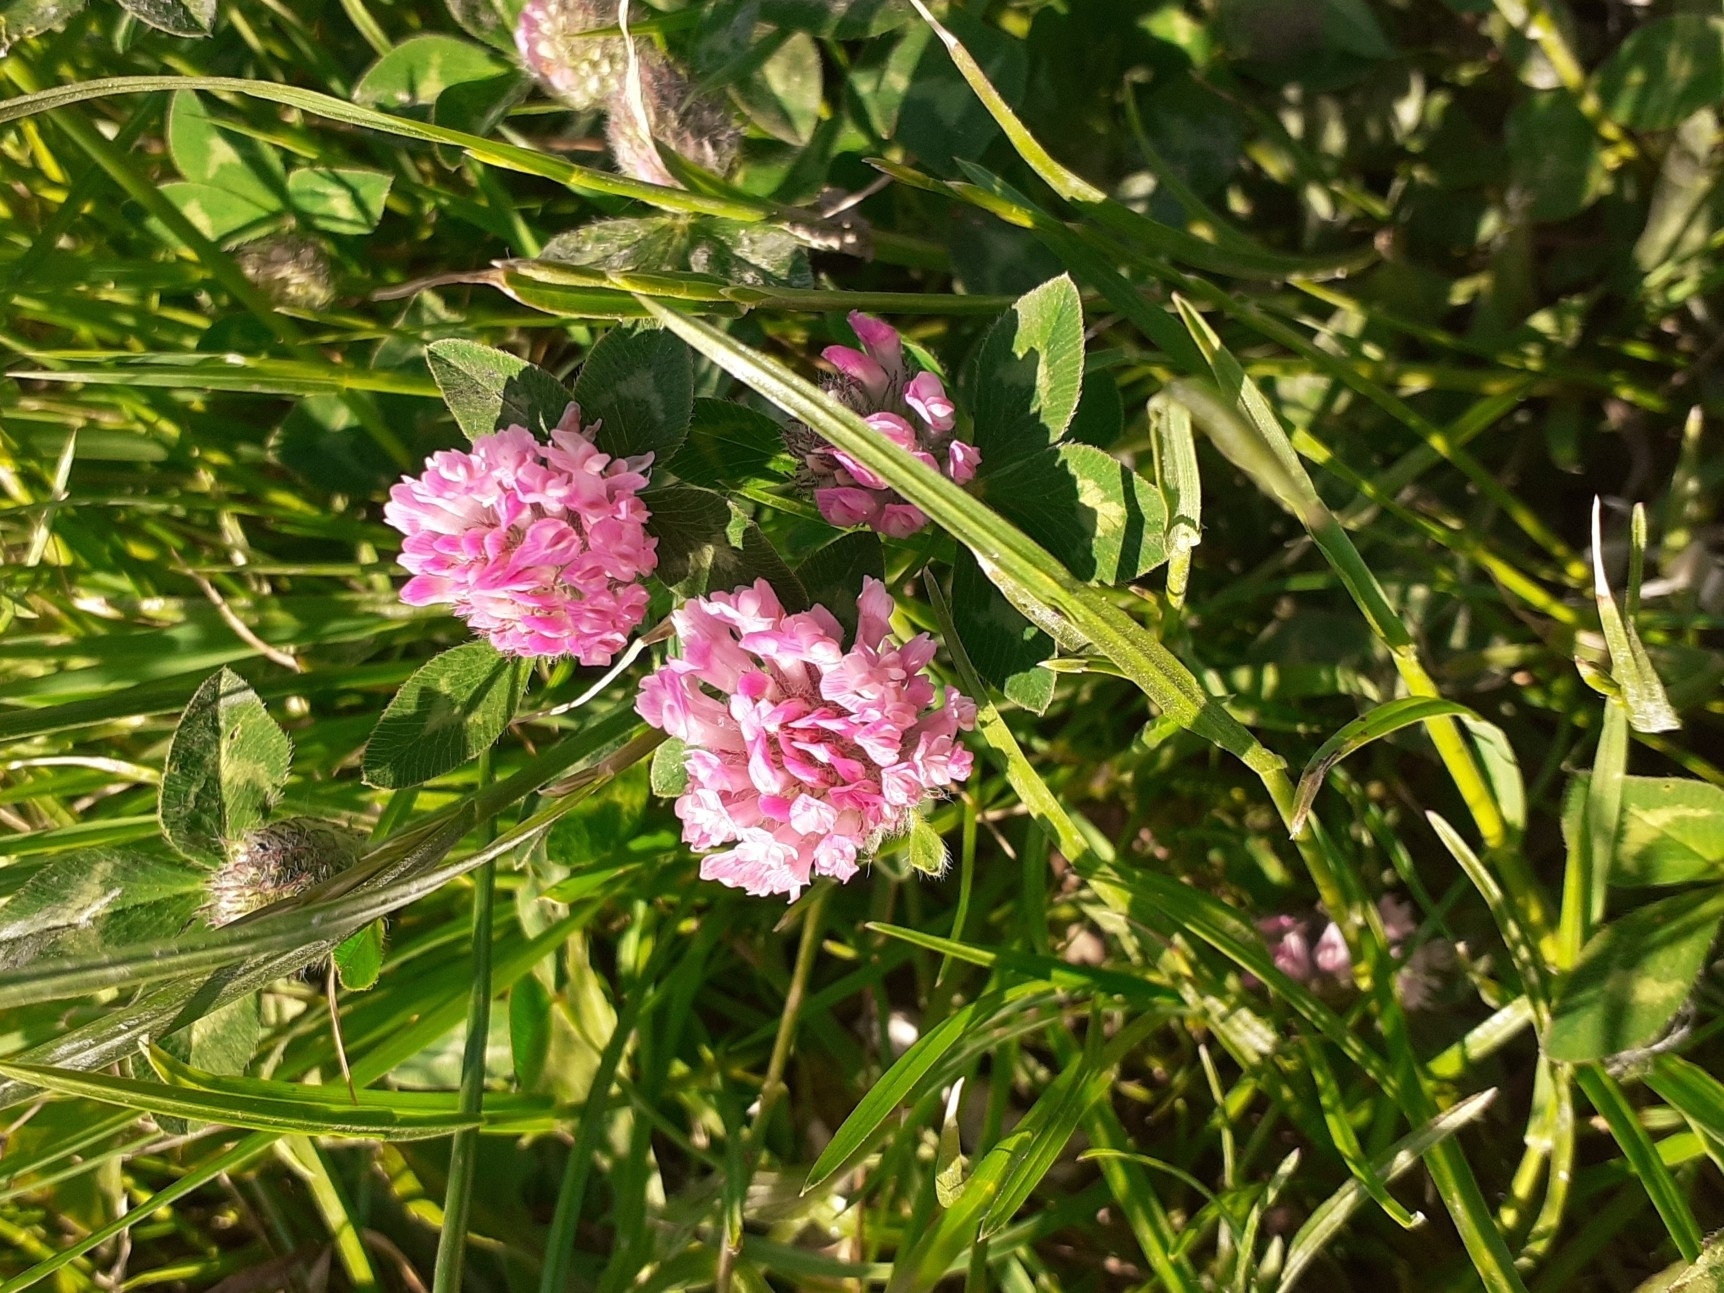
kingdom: Plantae
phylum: Tracheophyta
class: Magnoliopsida
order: Fabales
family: Fabaceae
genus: Trifolium
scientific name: Trifolium pratense
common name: Red clover
